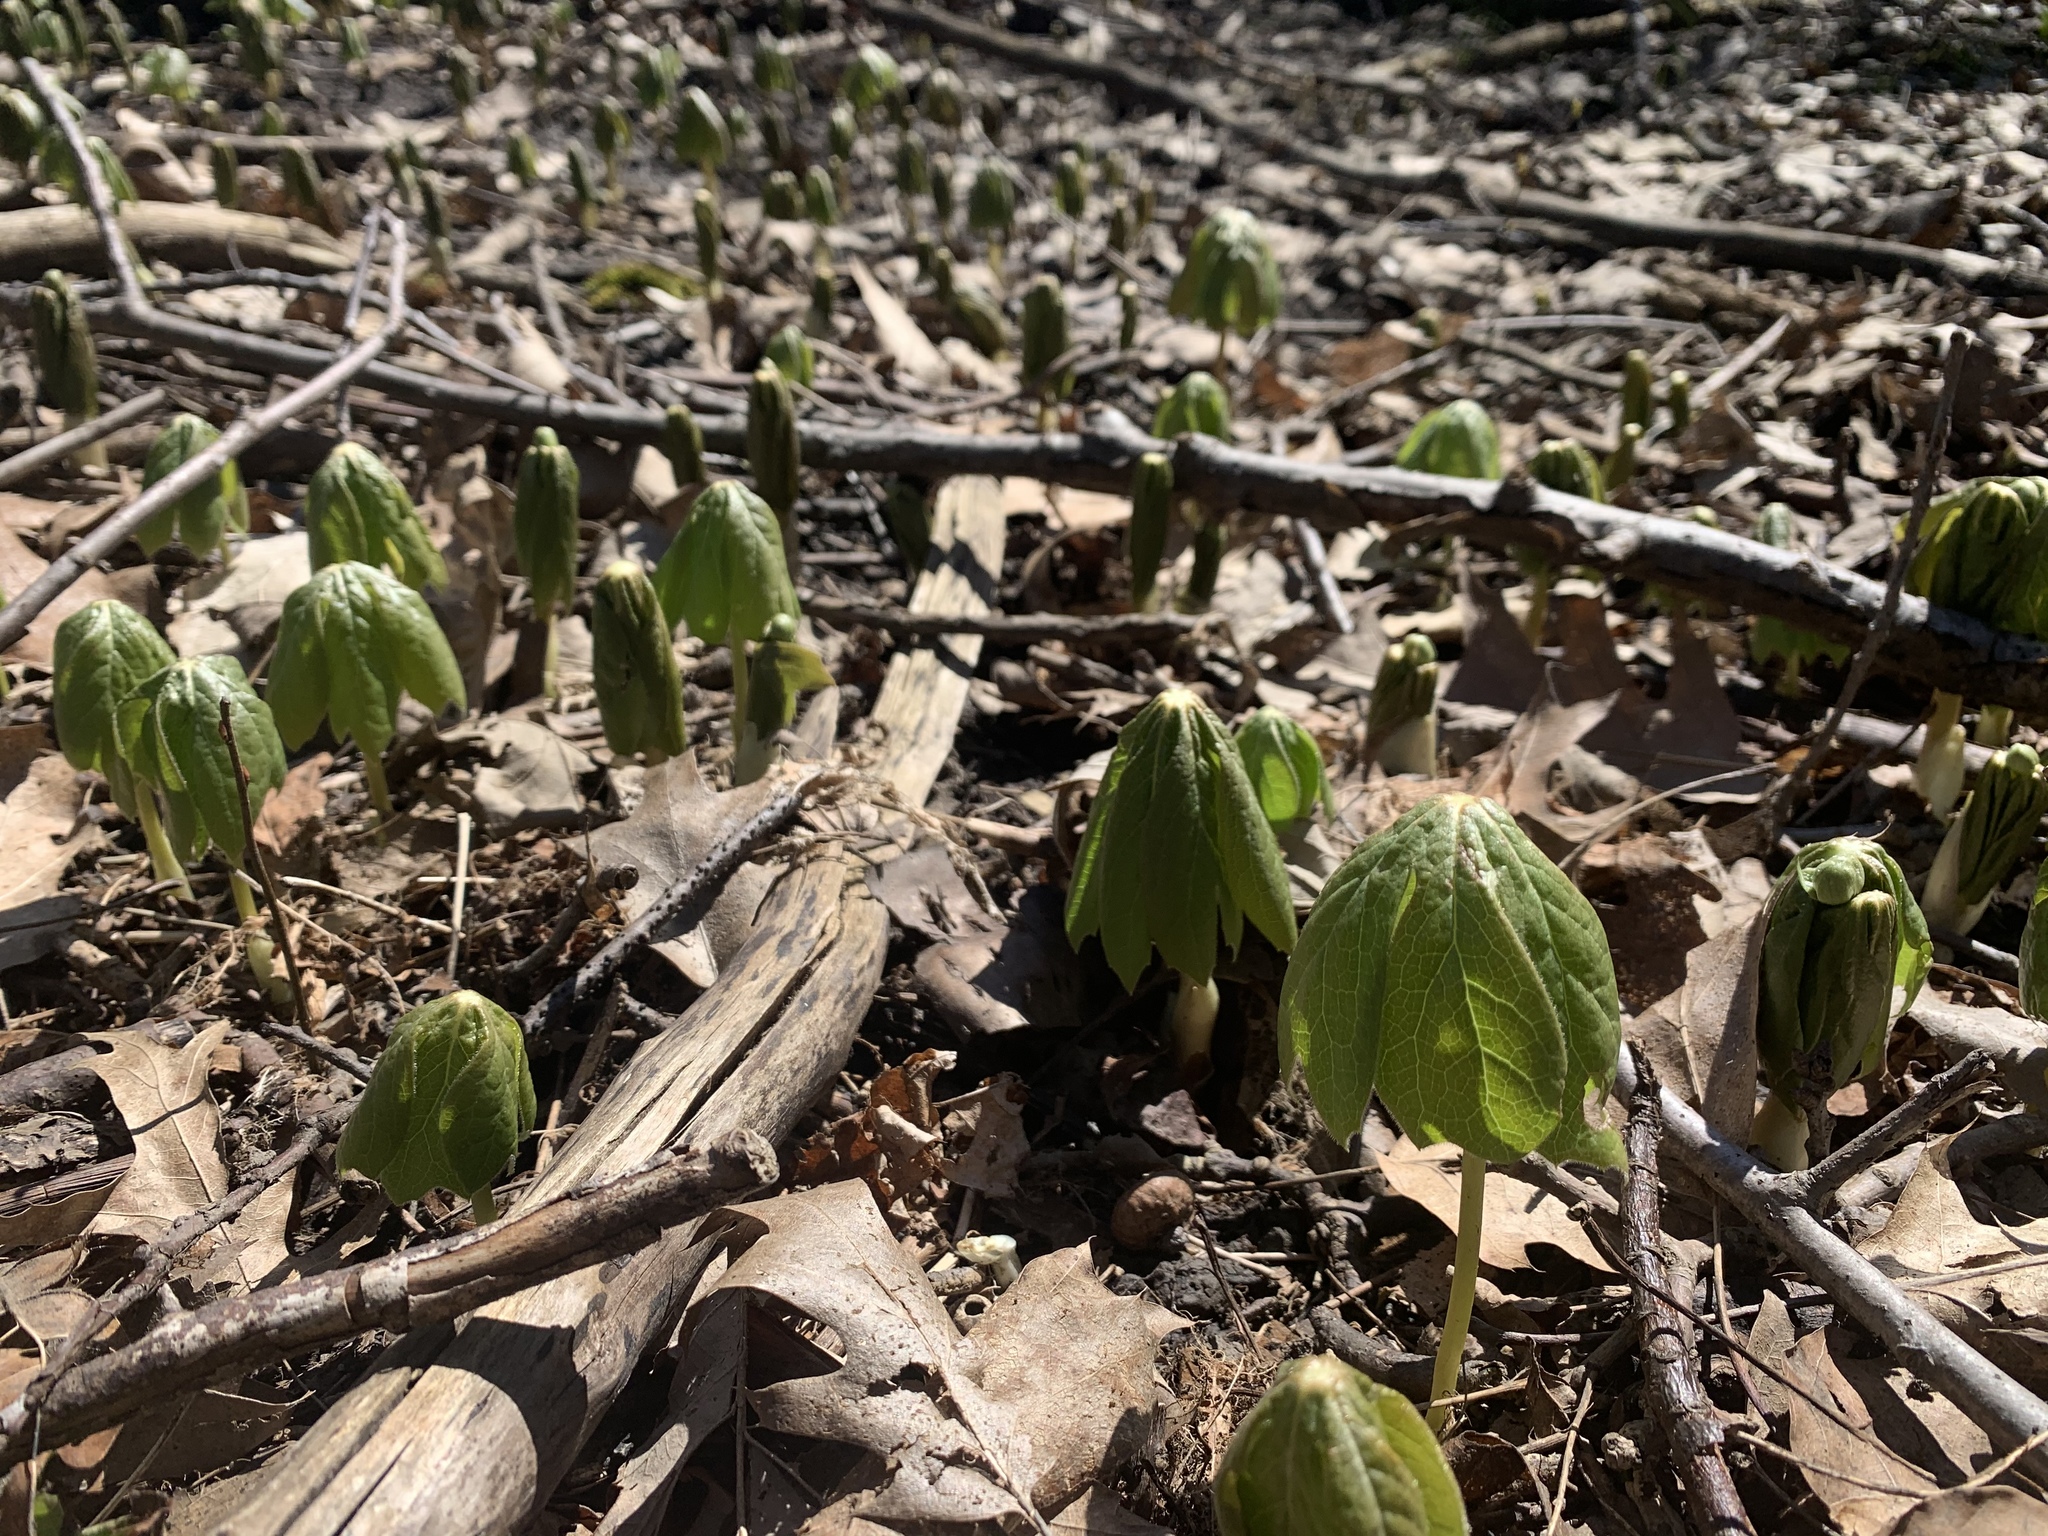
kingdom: Plantae
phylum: Tracheophyta
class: Magnoliopsida
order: Ranunculales
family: Berberidaceae
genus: Podophyllum
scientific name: Podophyllum peltatum
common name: Wild mandrake
